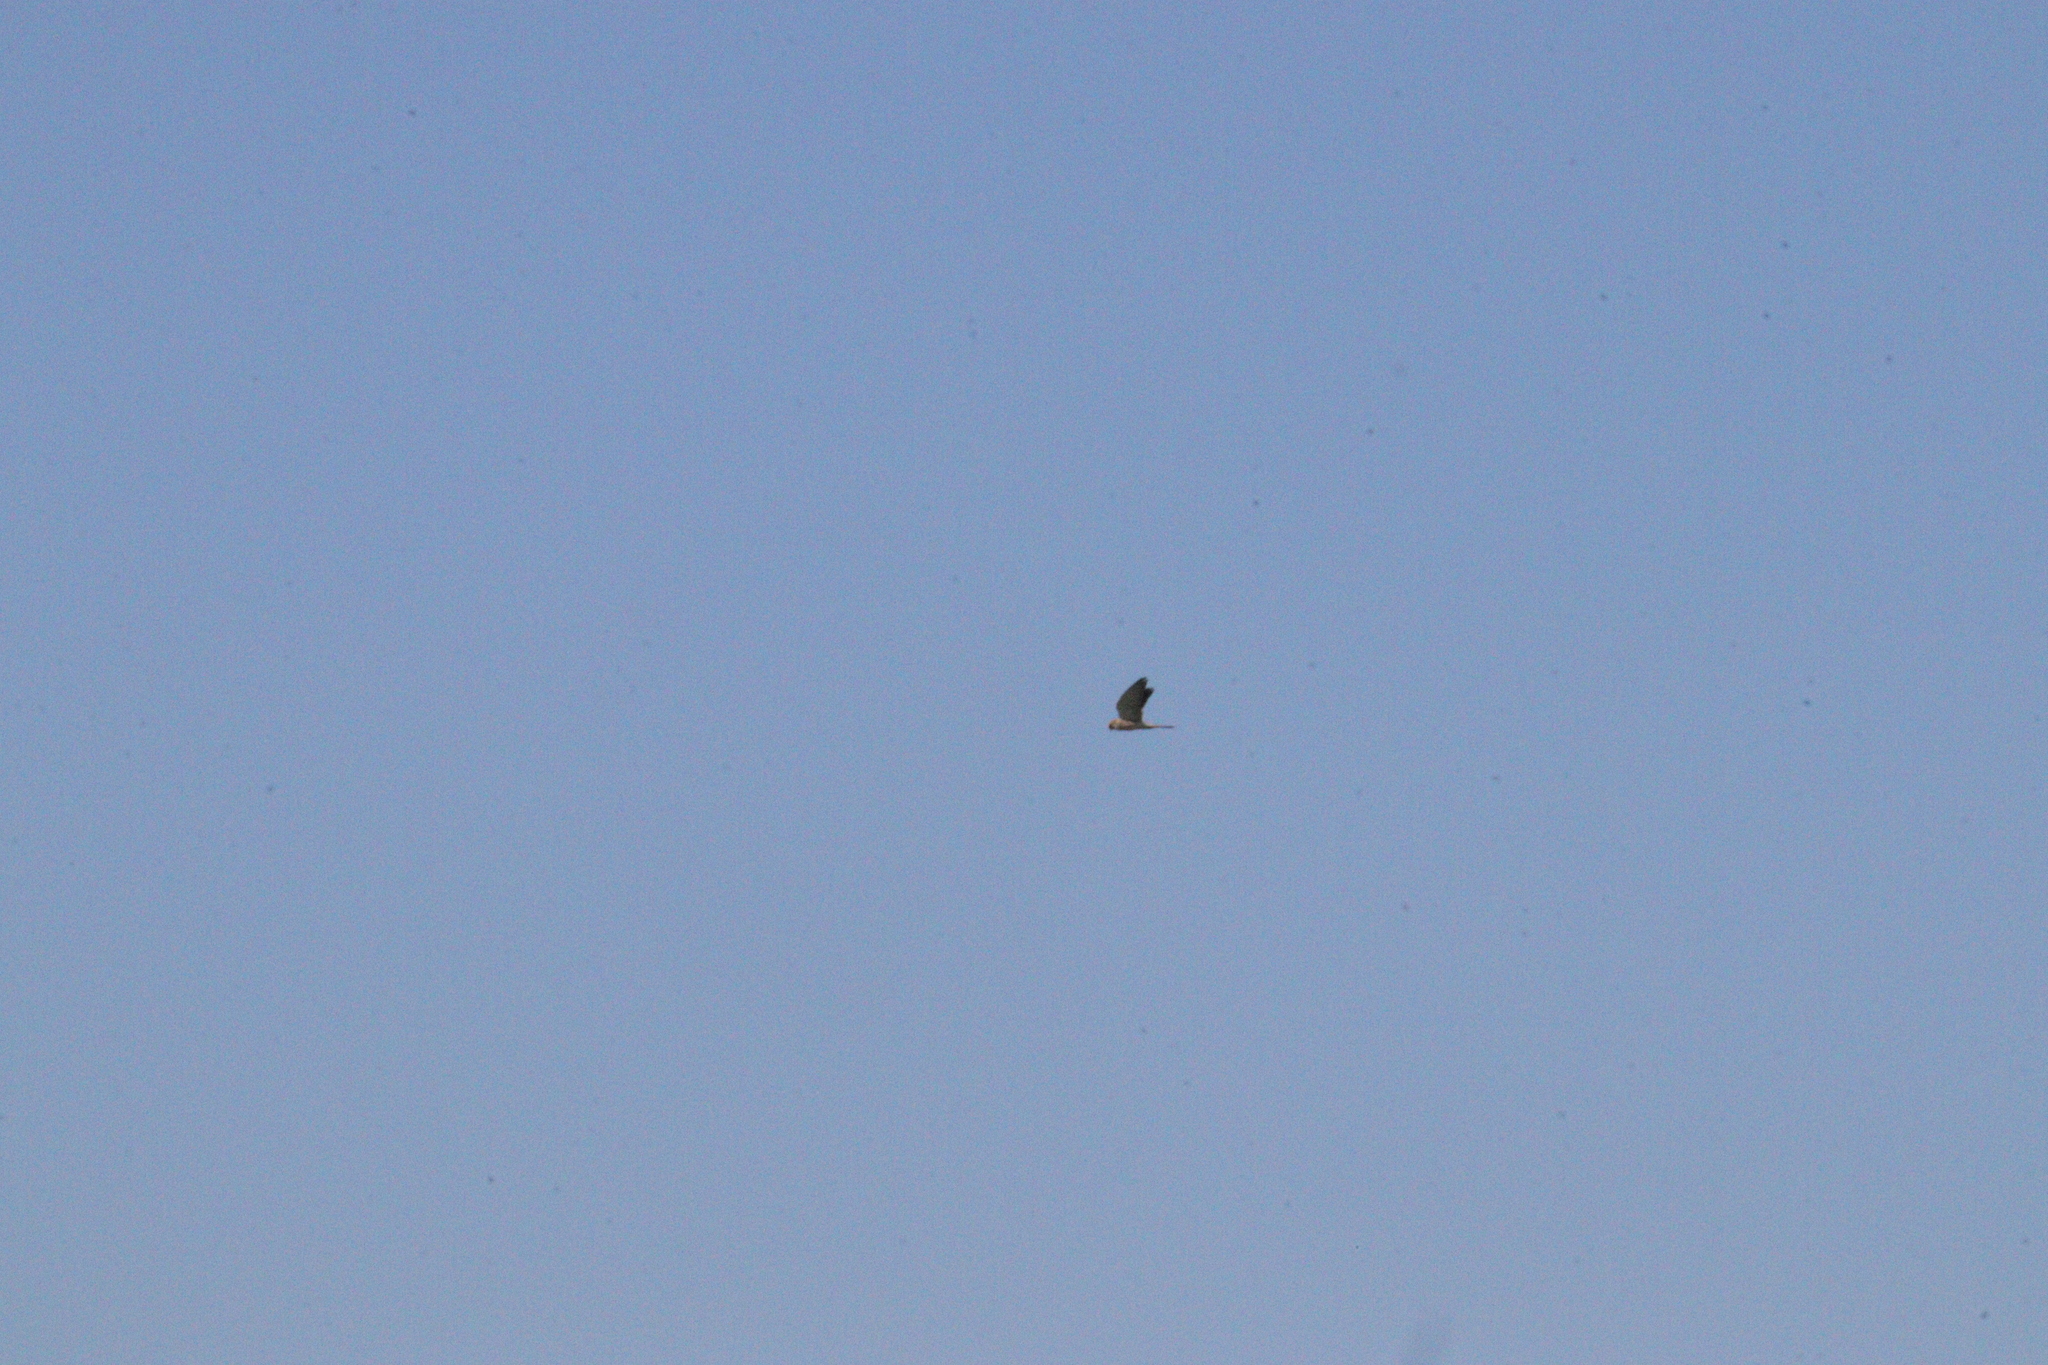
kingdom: Animalia
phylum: Chordata
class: Aves
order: Falconiformes
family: Falconidae
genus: Falco
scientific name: Falco cenchroides
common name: Nankeen kestrel
